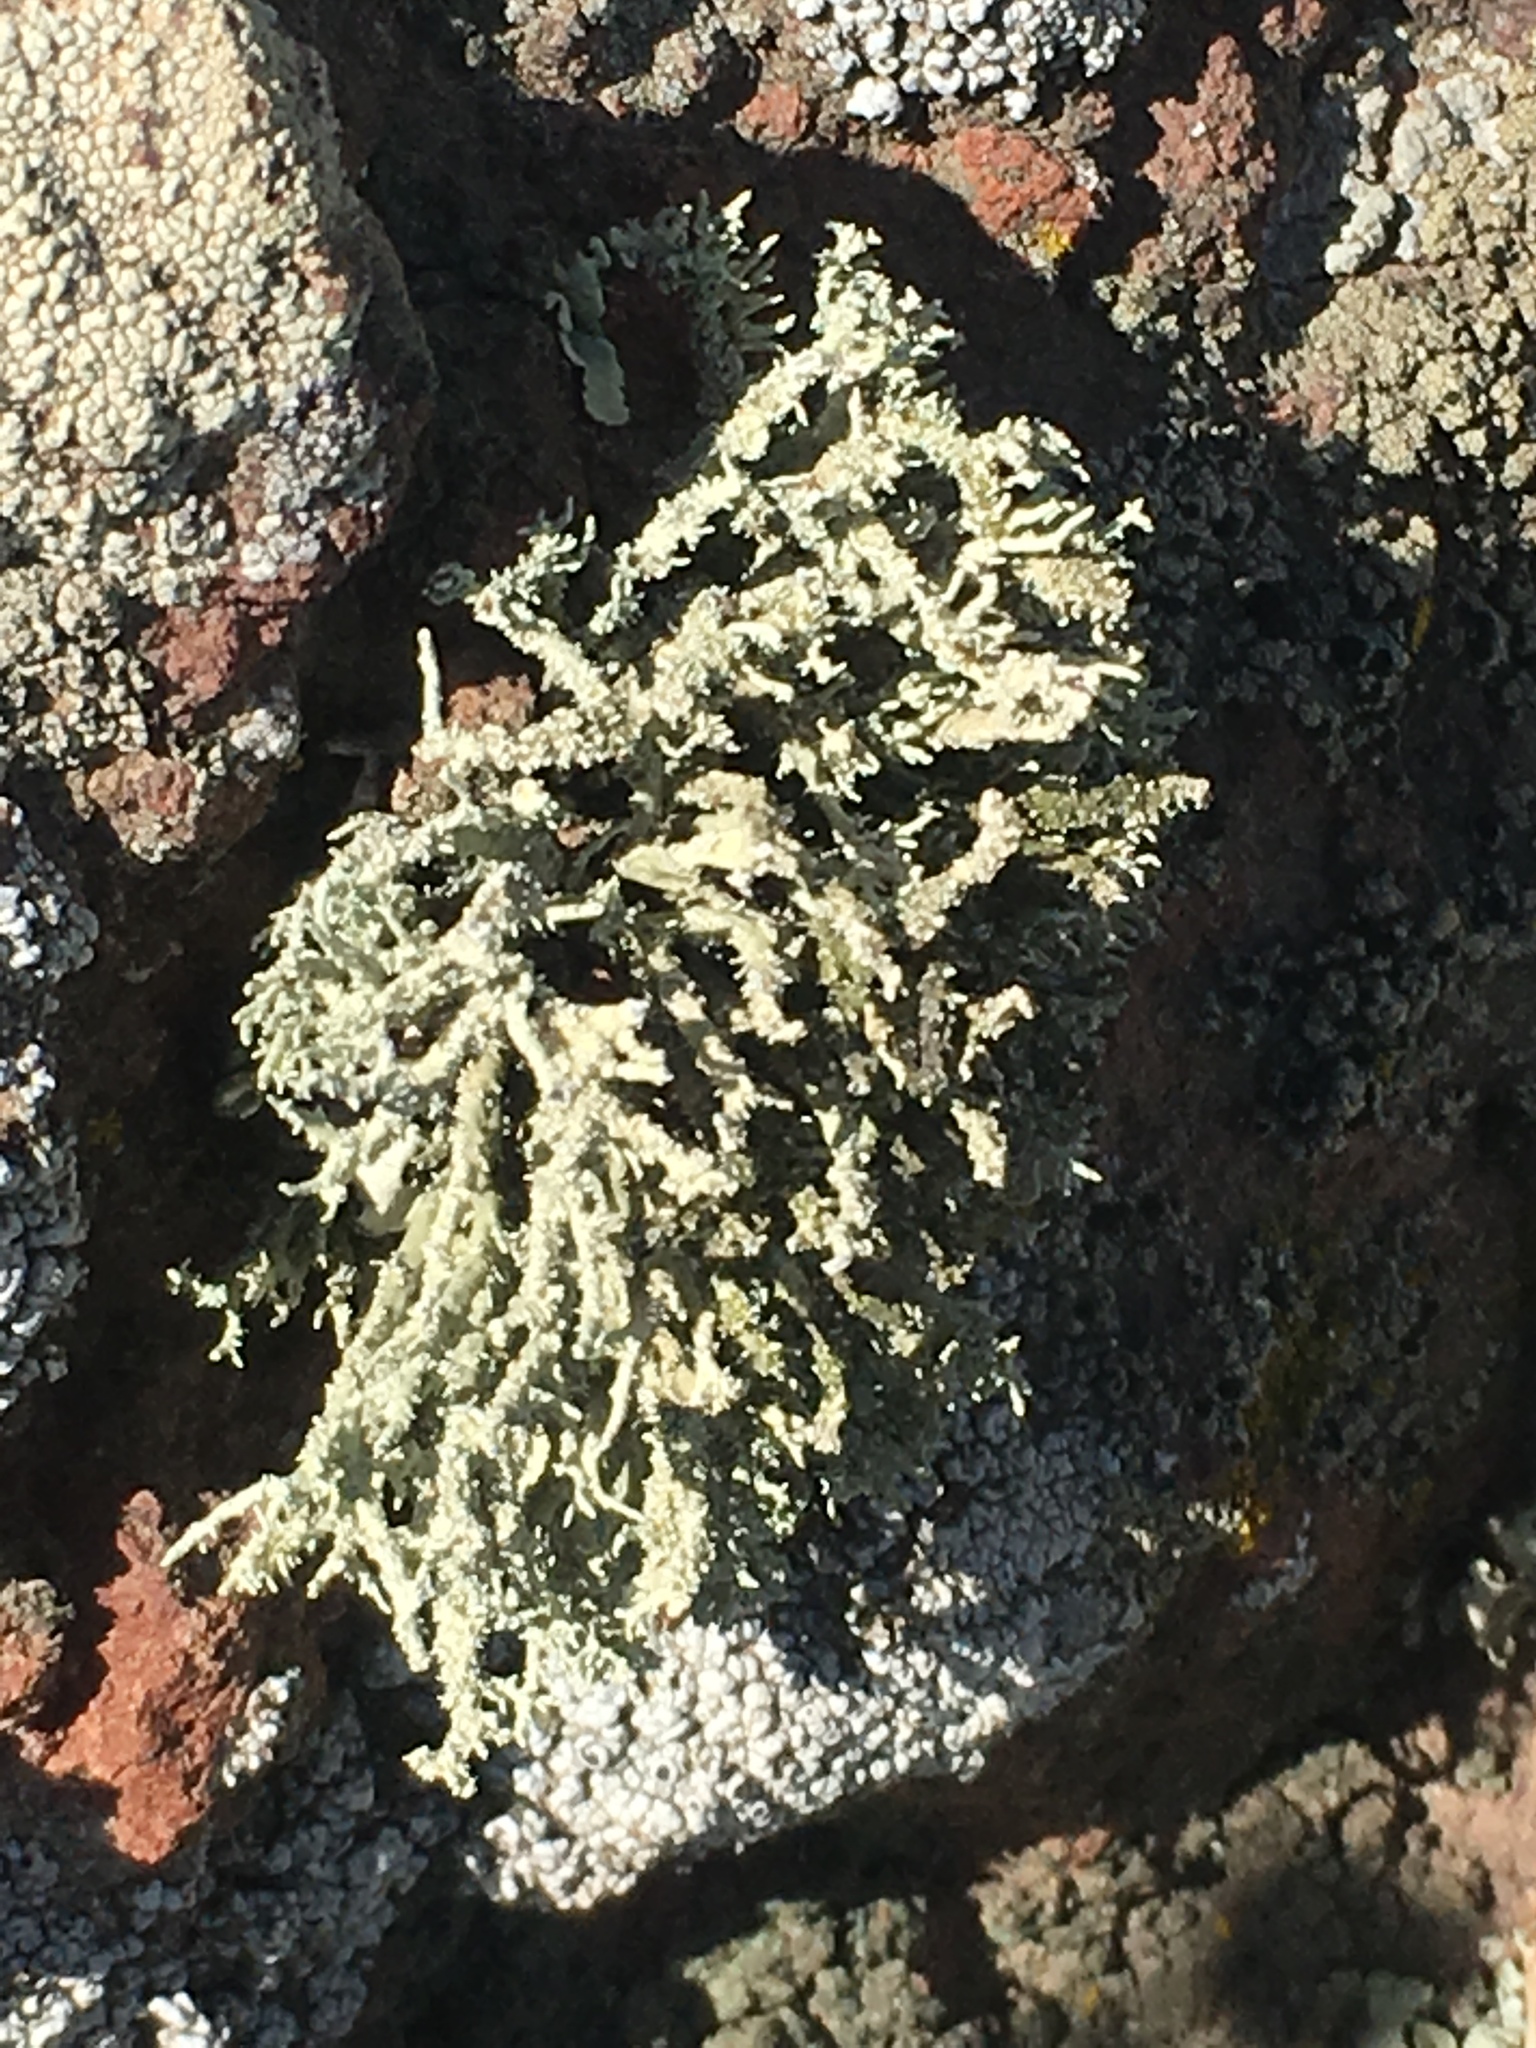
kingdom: Fungi
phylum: Ascomycota
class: Lecanoromycetes
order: Lecanorales
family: Ramalinaceae
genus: Niebla
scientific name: Niebla isidiaescens
